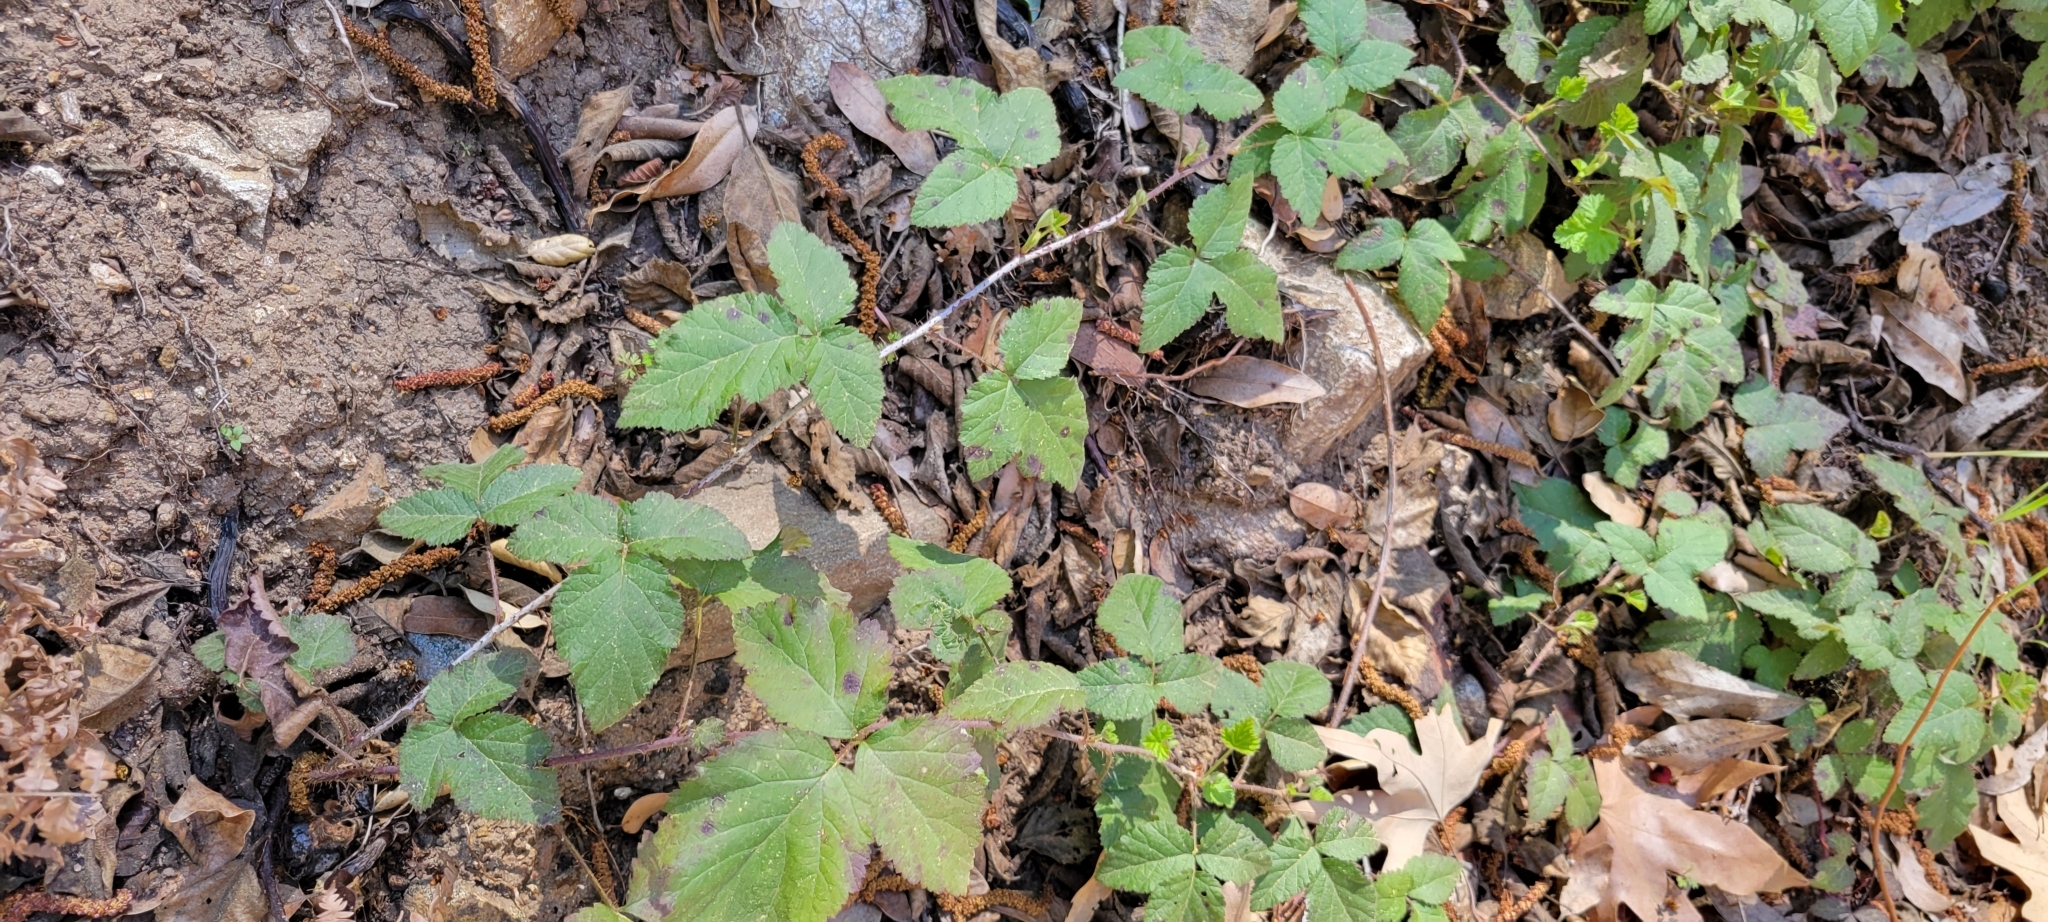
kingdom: Plantae
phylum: Tracheophyta
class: Magnoliopsida
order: Rosales
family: Rosaceae
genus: Rubus
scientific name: Rubus ursinus
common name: Pacific blackberry
